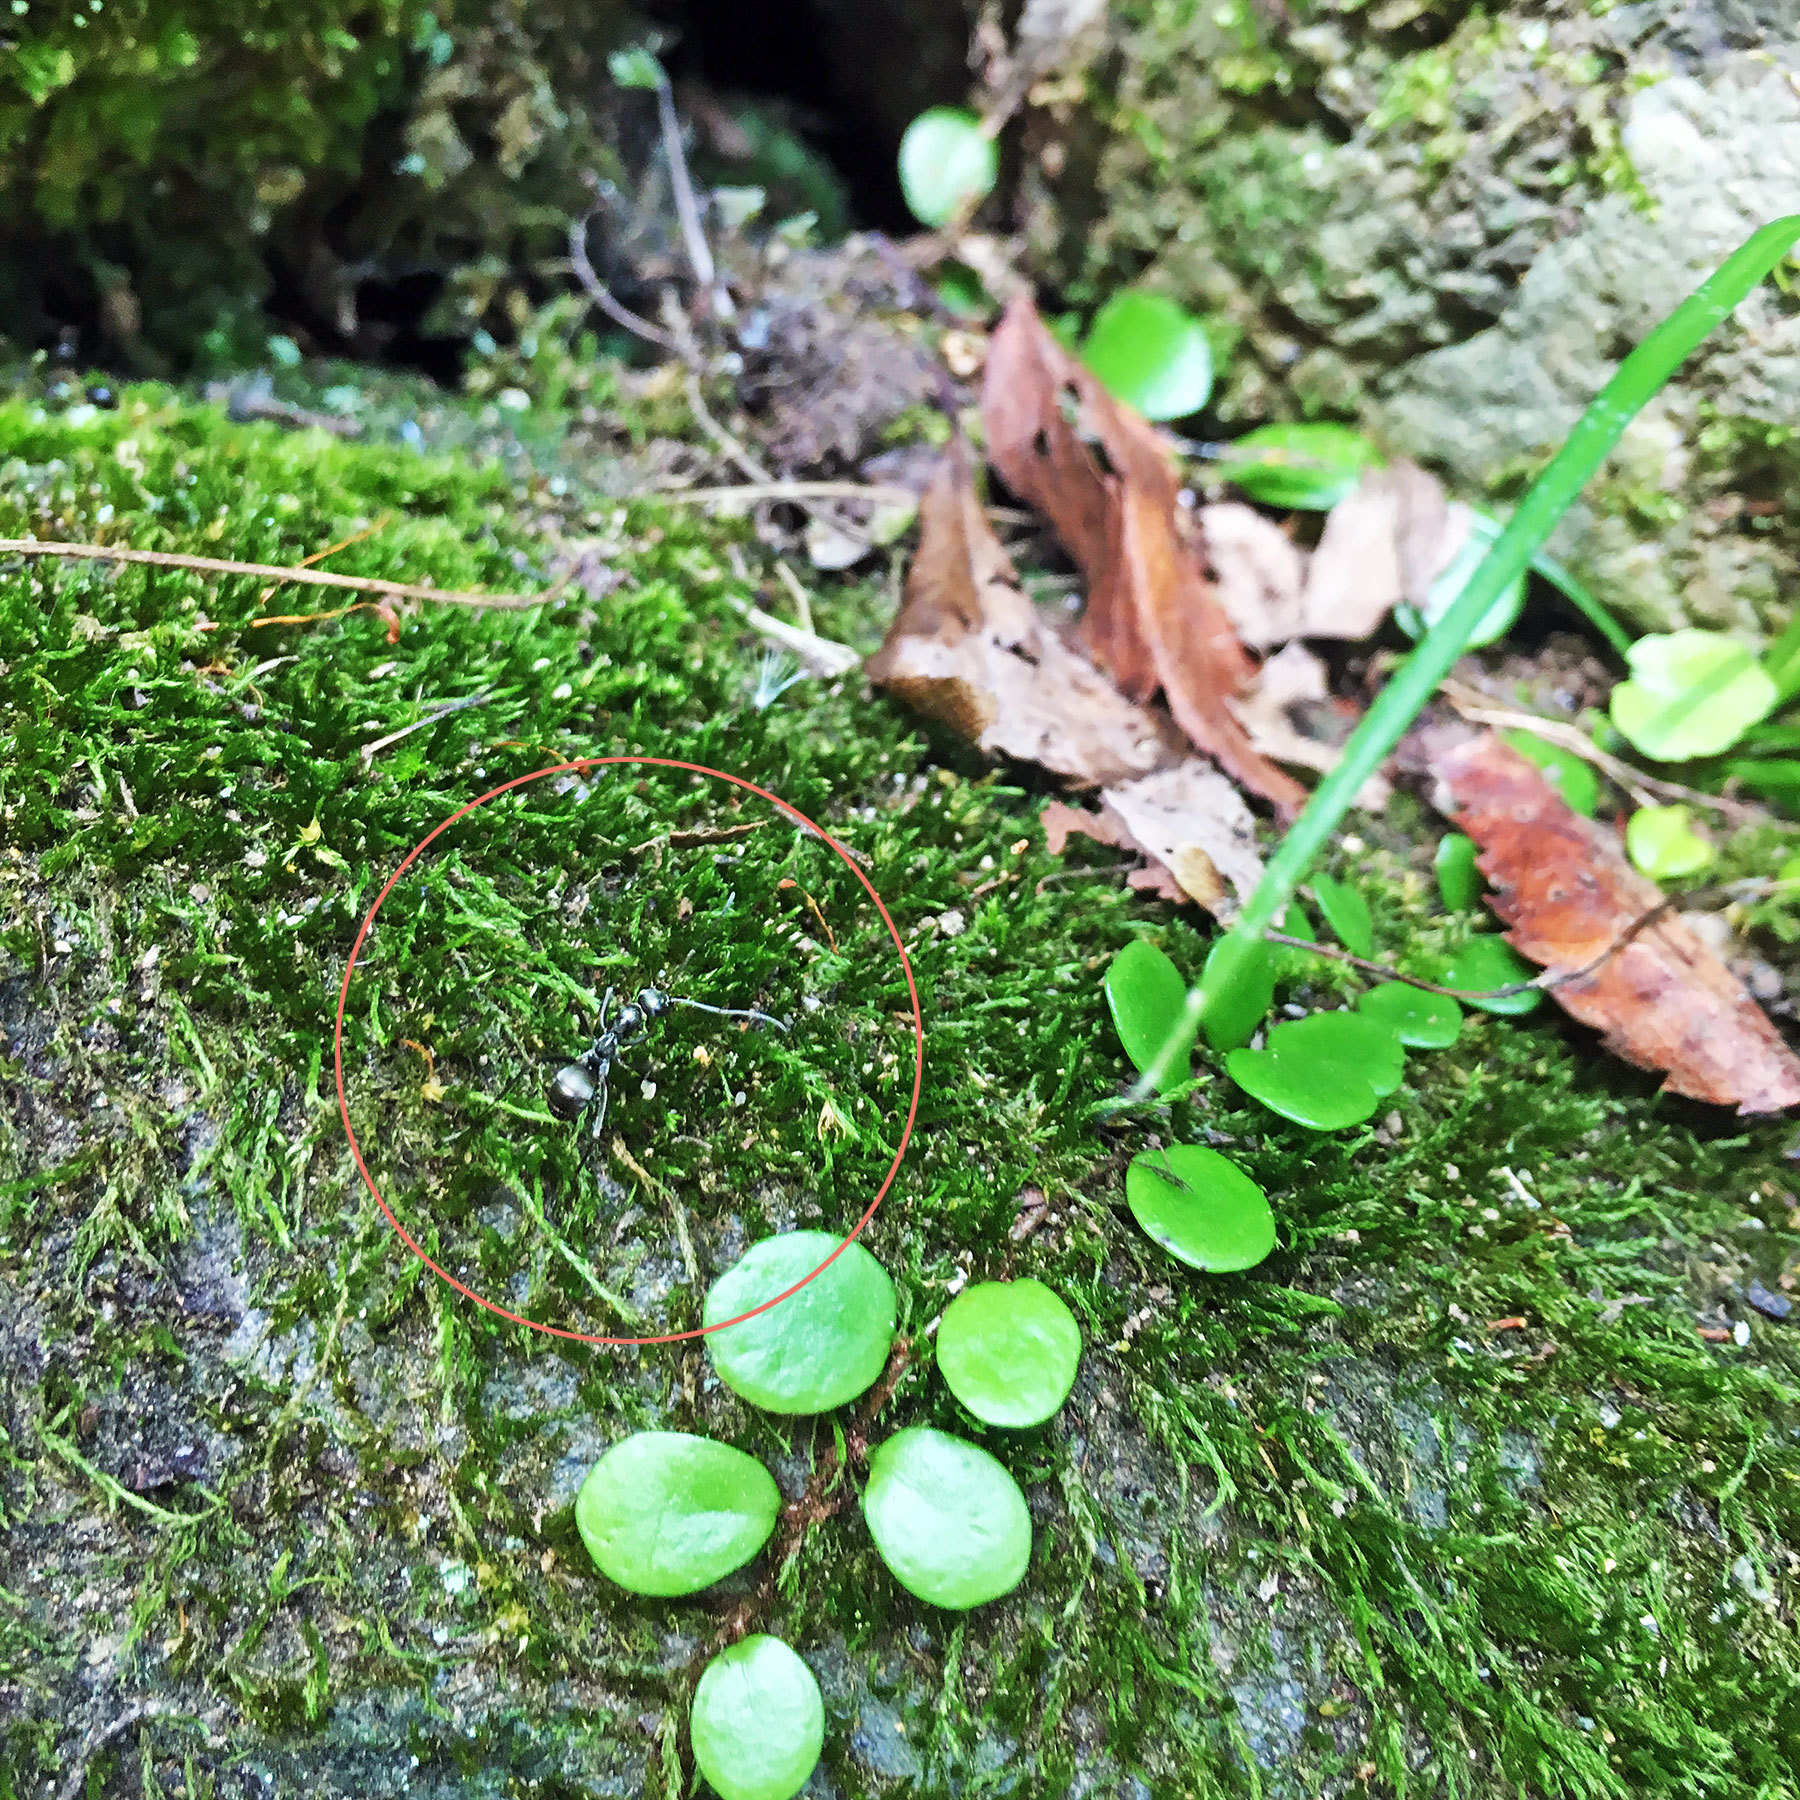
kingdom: Animalia
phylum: Arthropoda
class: Insecta
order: Hymenoptera
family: Formicidae
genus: Formica
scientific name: Formica hayashi
